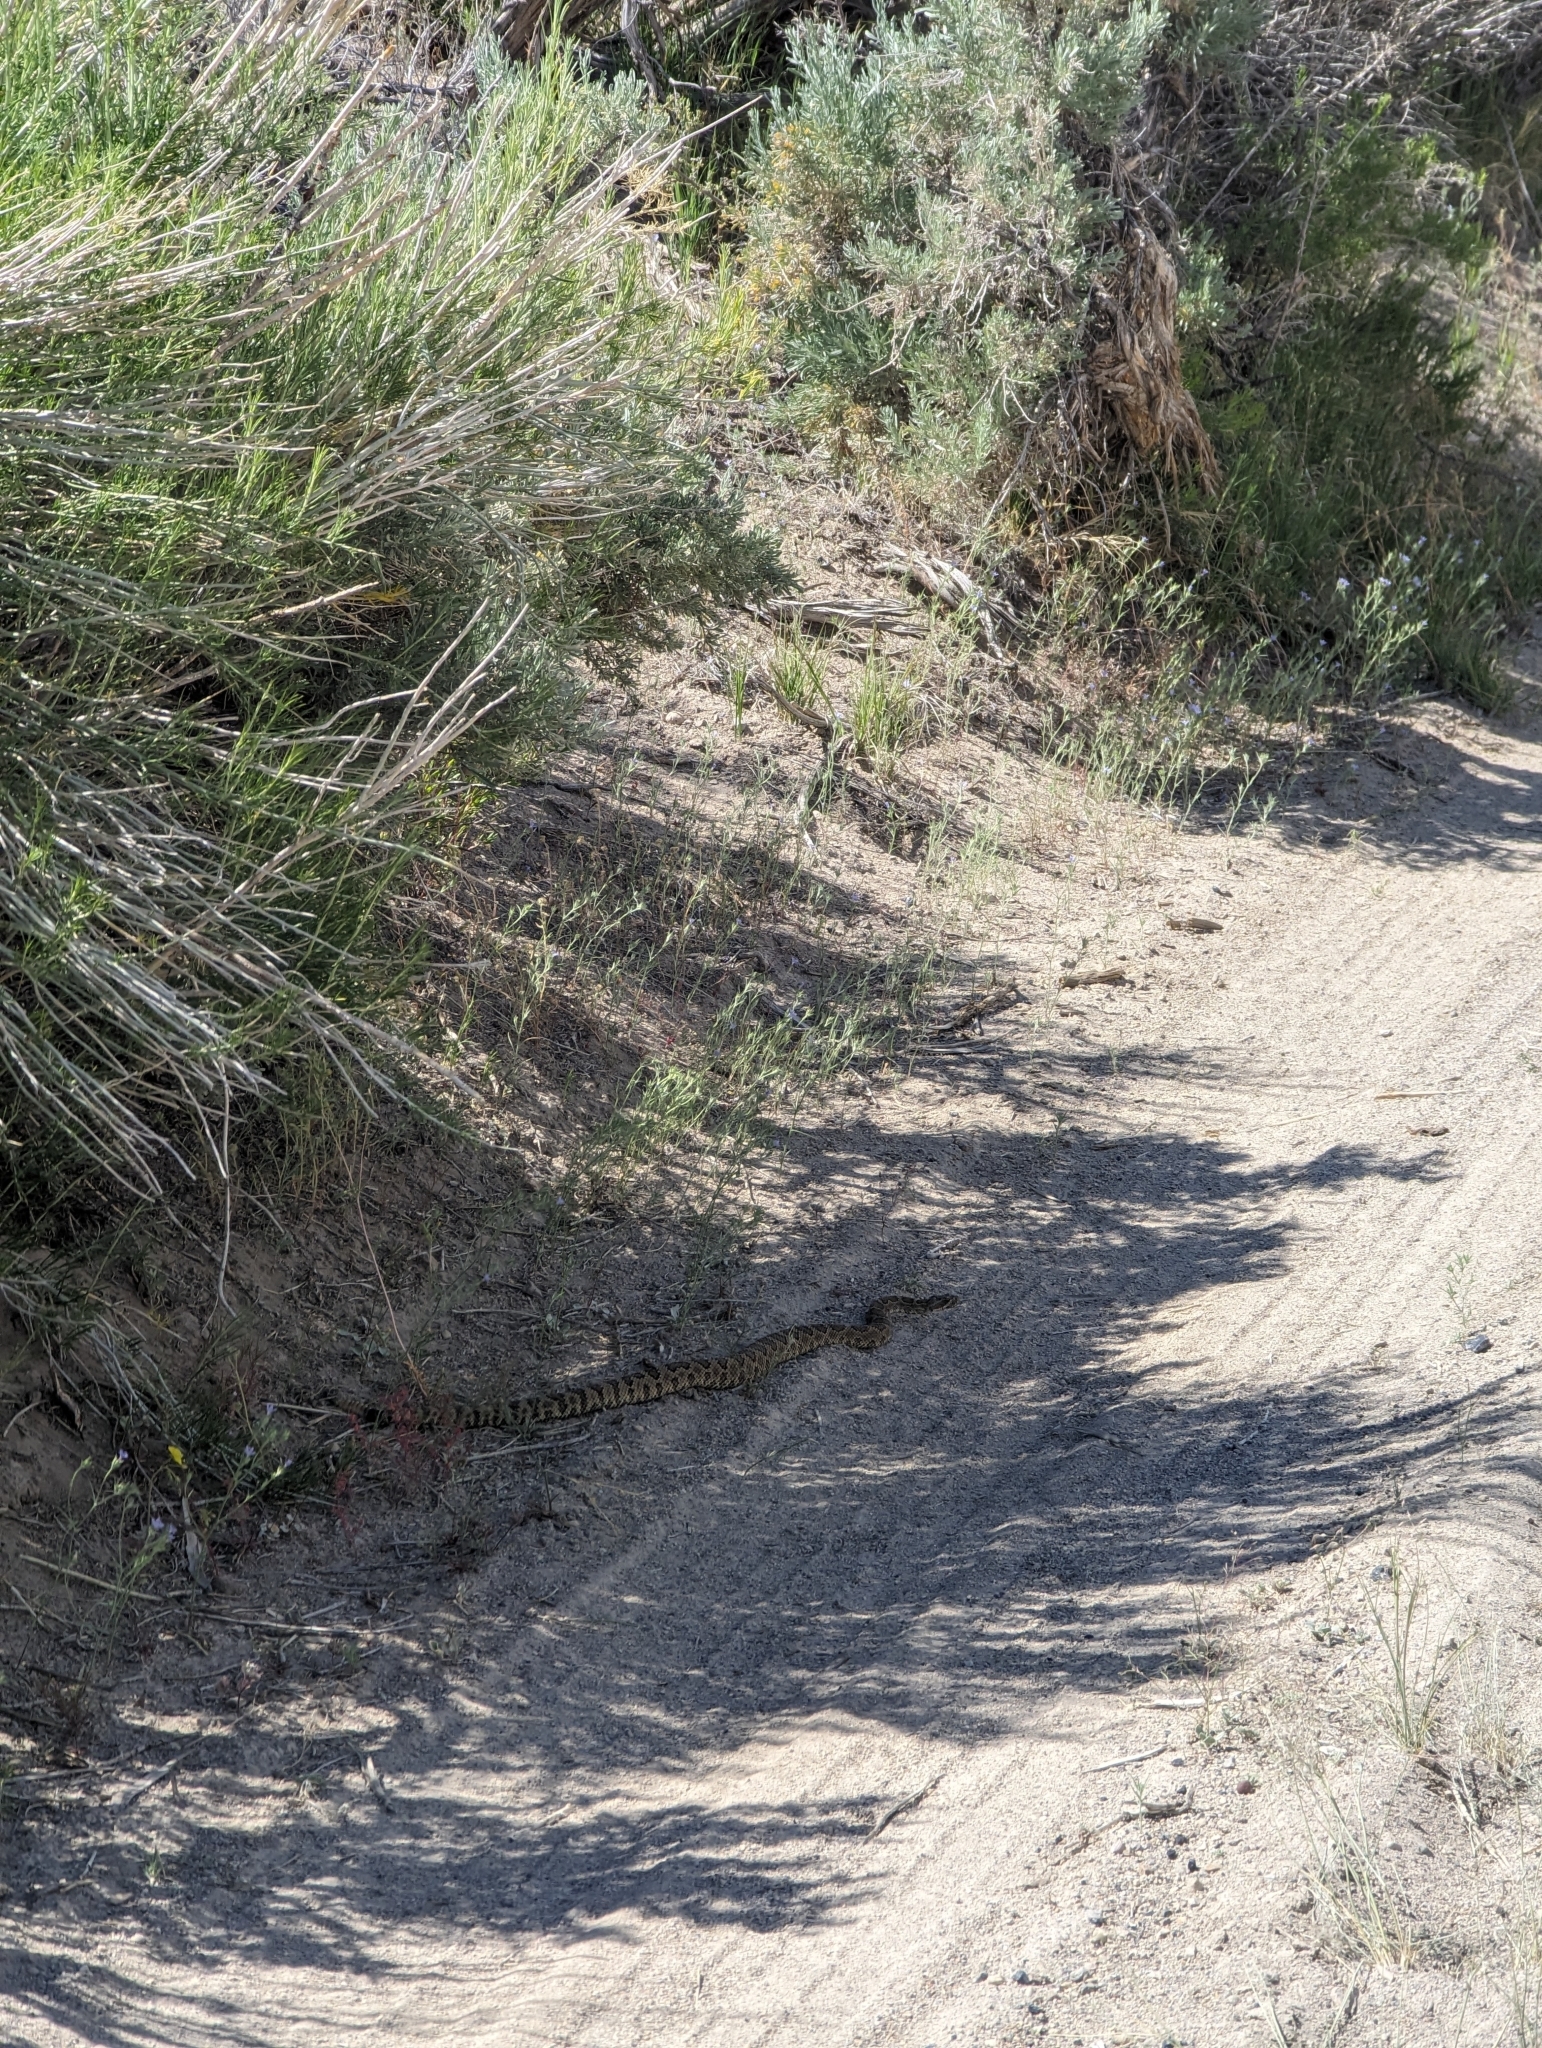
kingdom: Animalia
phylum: Chordata
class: Squamata
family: Viperidae
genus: Crotalus
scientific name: Crotalus oreganus
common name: Abyssus
